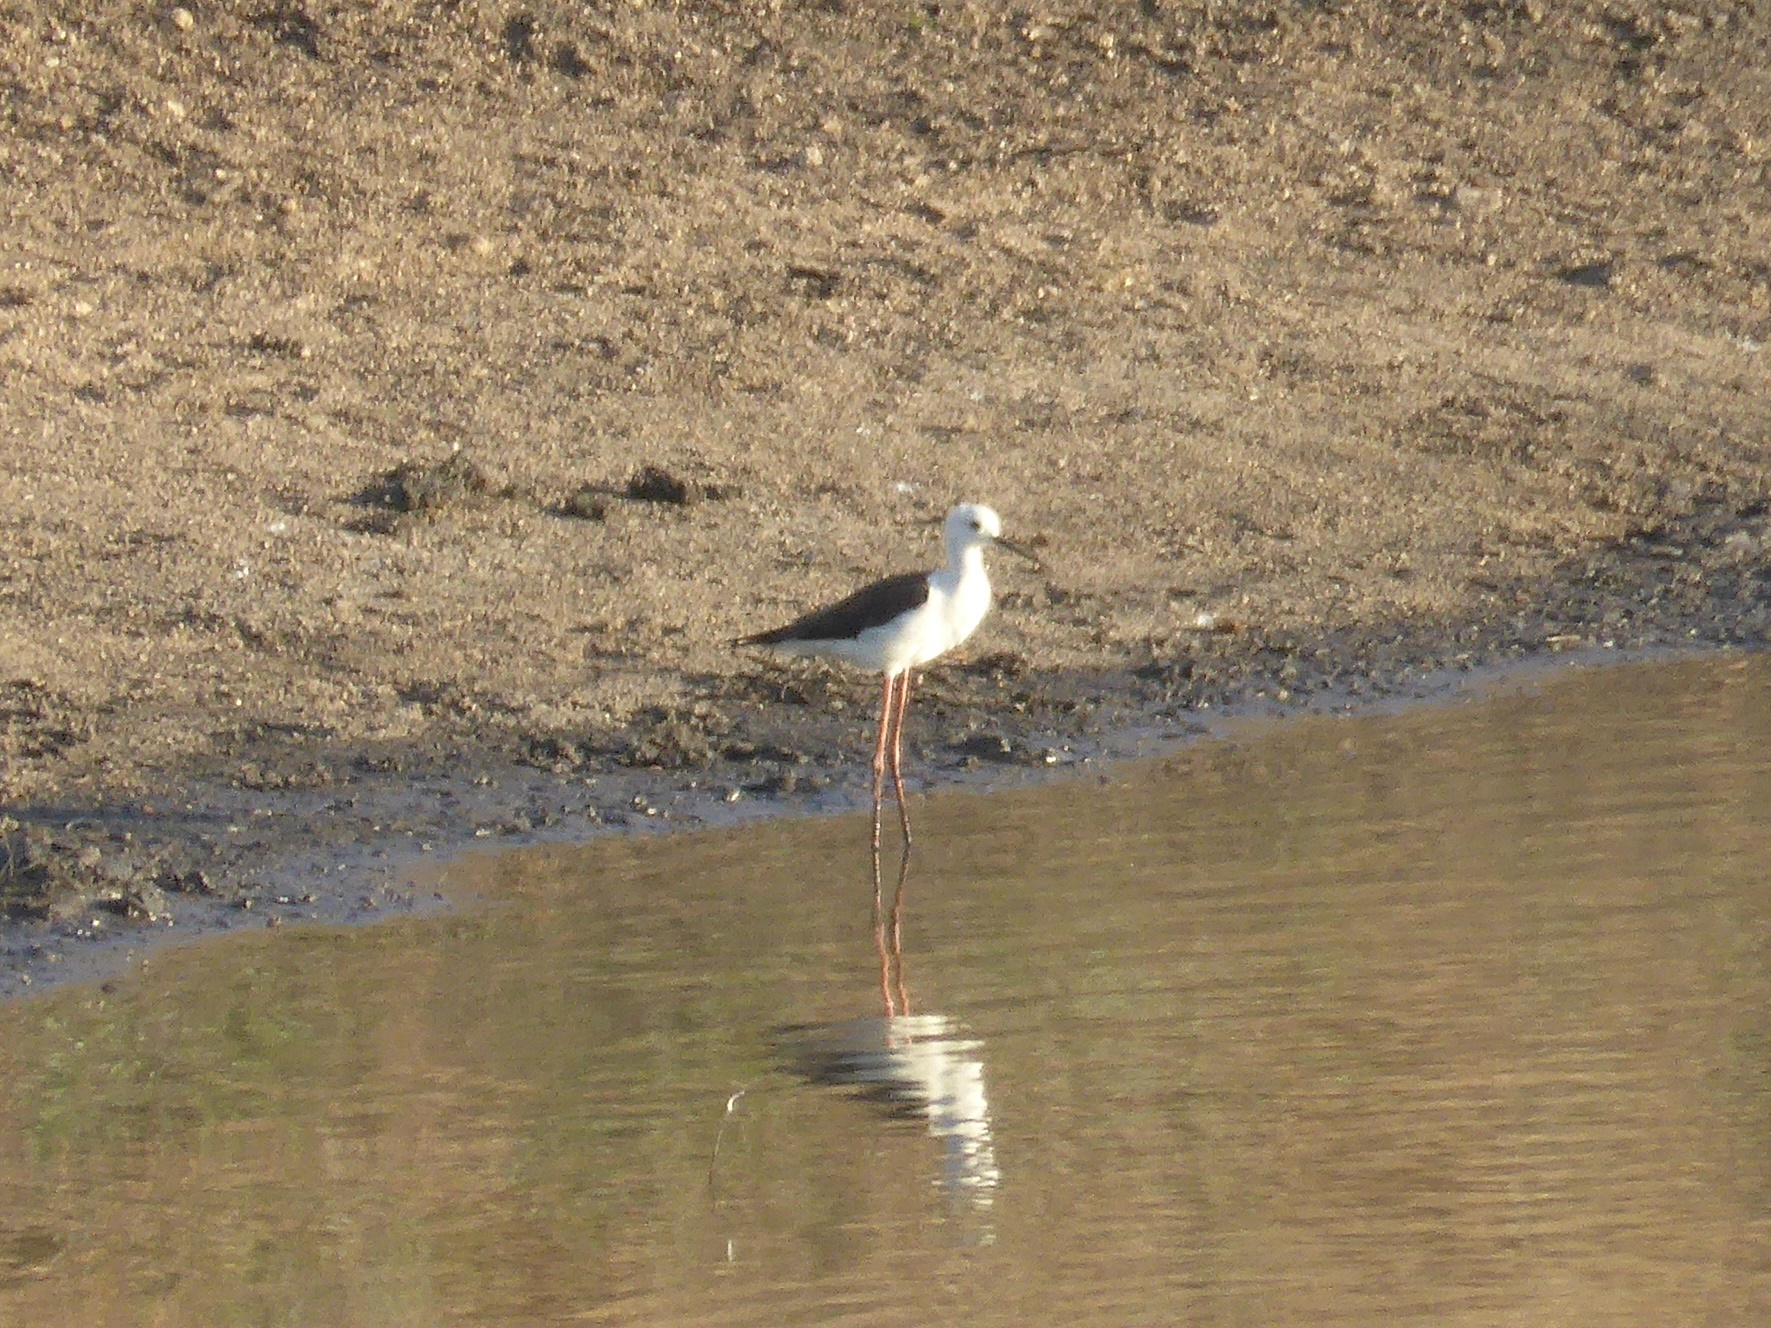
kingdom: Animalia
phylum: Chordata
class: Aves
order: Charadriiformes
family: Recurvirostridae
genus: Himantopus
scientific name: Himantopus himantopus
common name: Black-winged stilt
